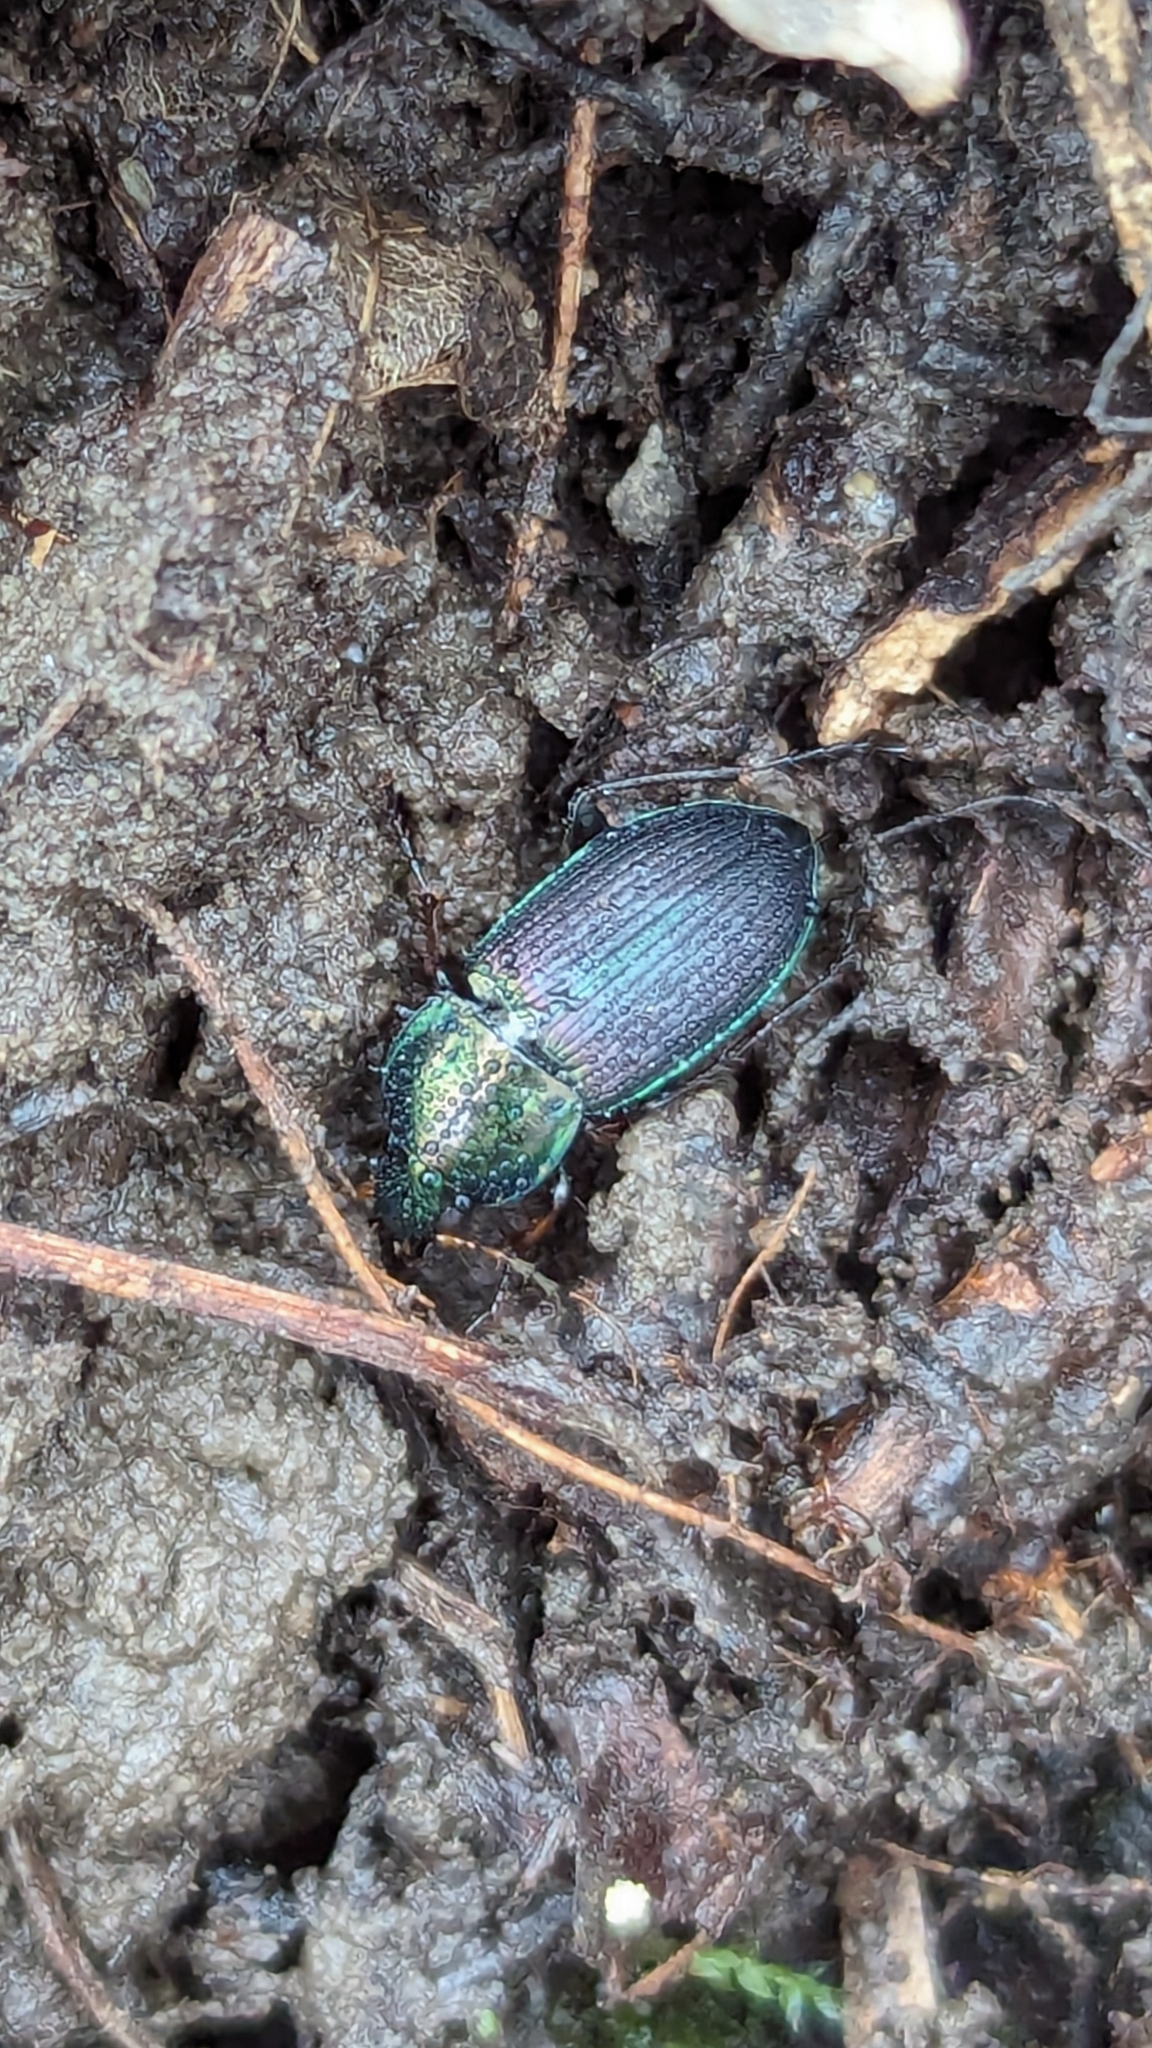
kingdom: Animalia
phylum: Arthropoda
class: Insecta
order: Coleoptera
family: Carabidae
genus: Poecilus
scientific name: Poecilus lucublandus
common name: Woodland ground beetle
